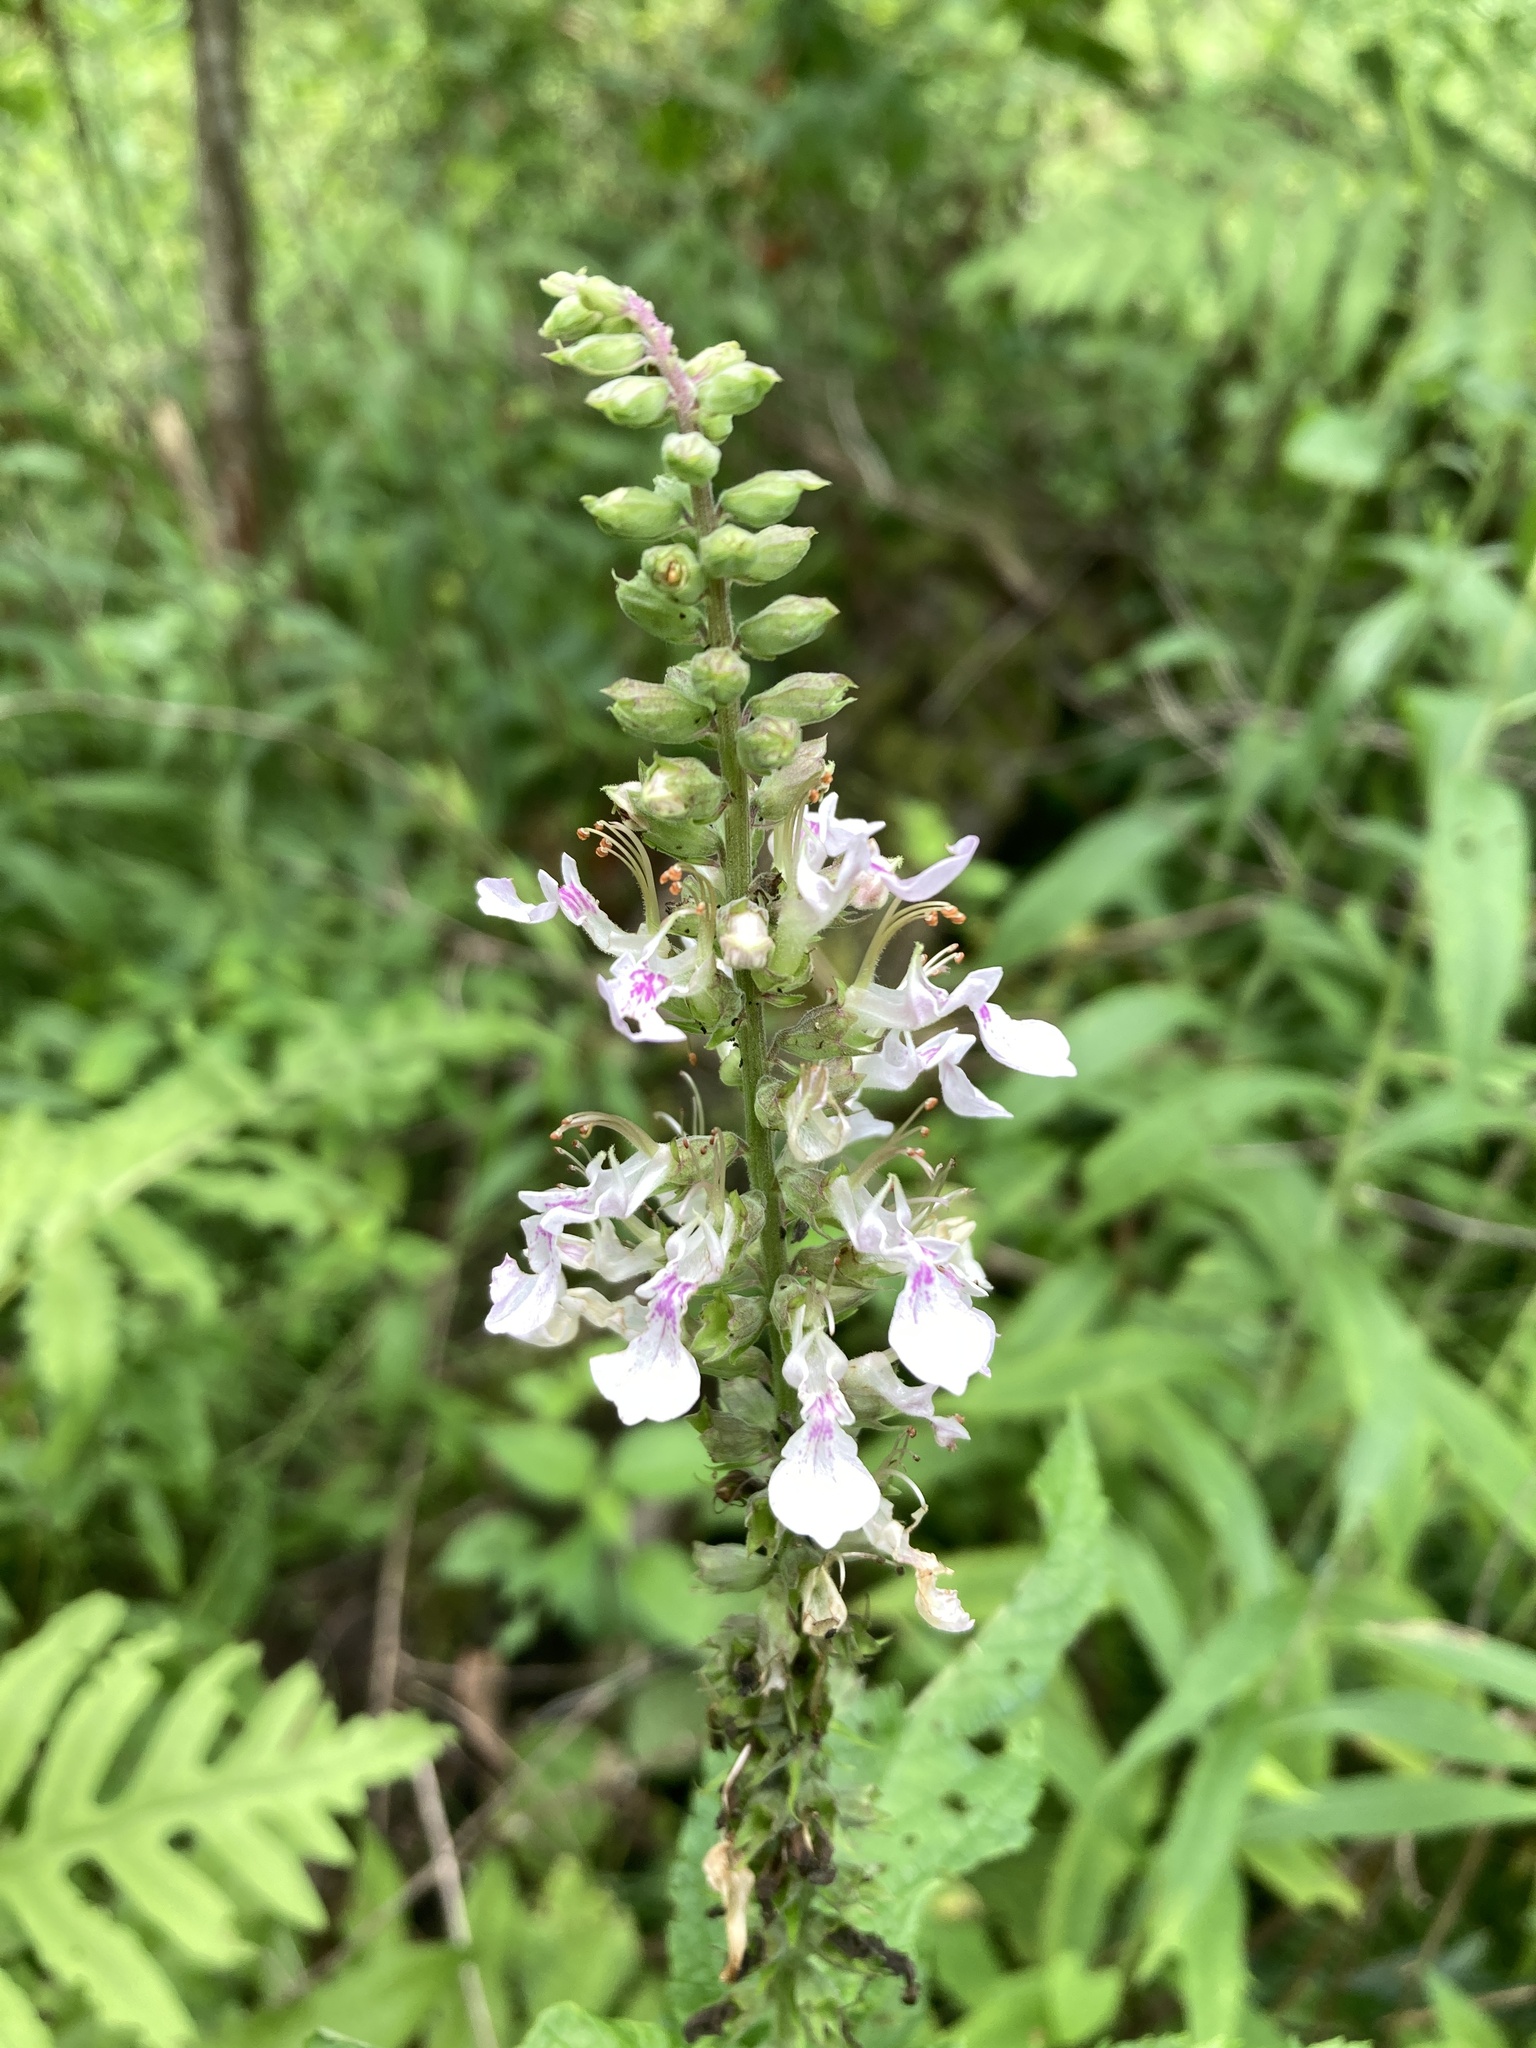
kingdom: Plantae
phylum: Tracheophyta
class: Magnoliopsida
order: Lamiales
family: Lamiaceae
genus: Teucrium
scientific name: Teucrium canadense
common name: American germander
